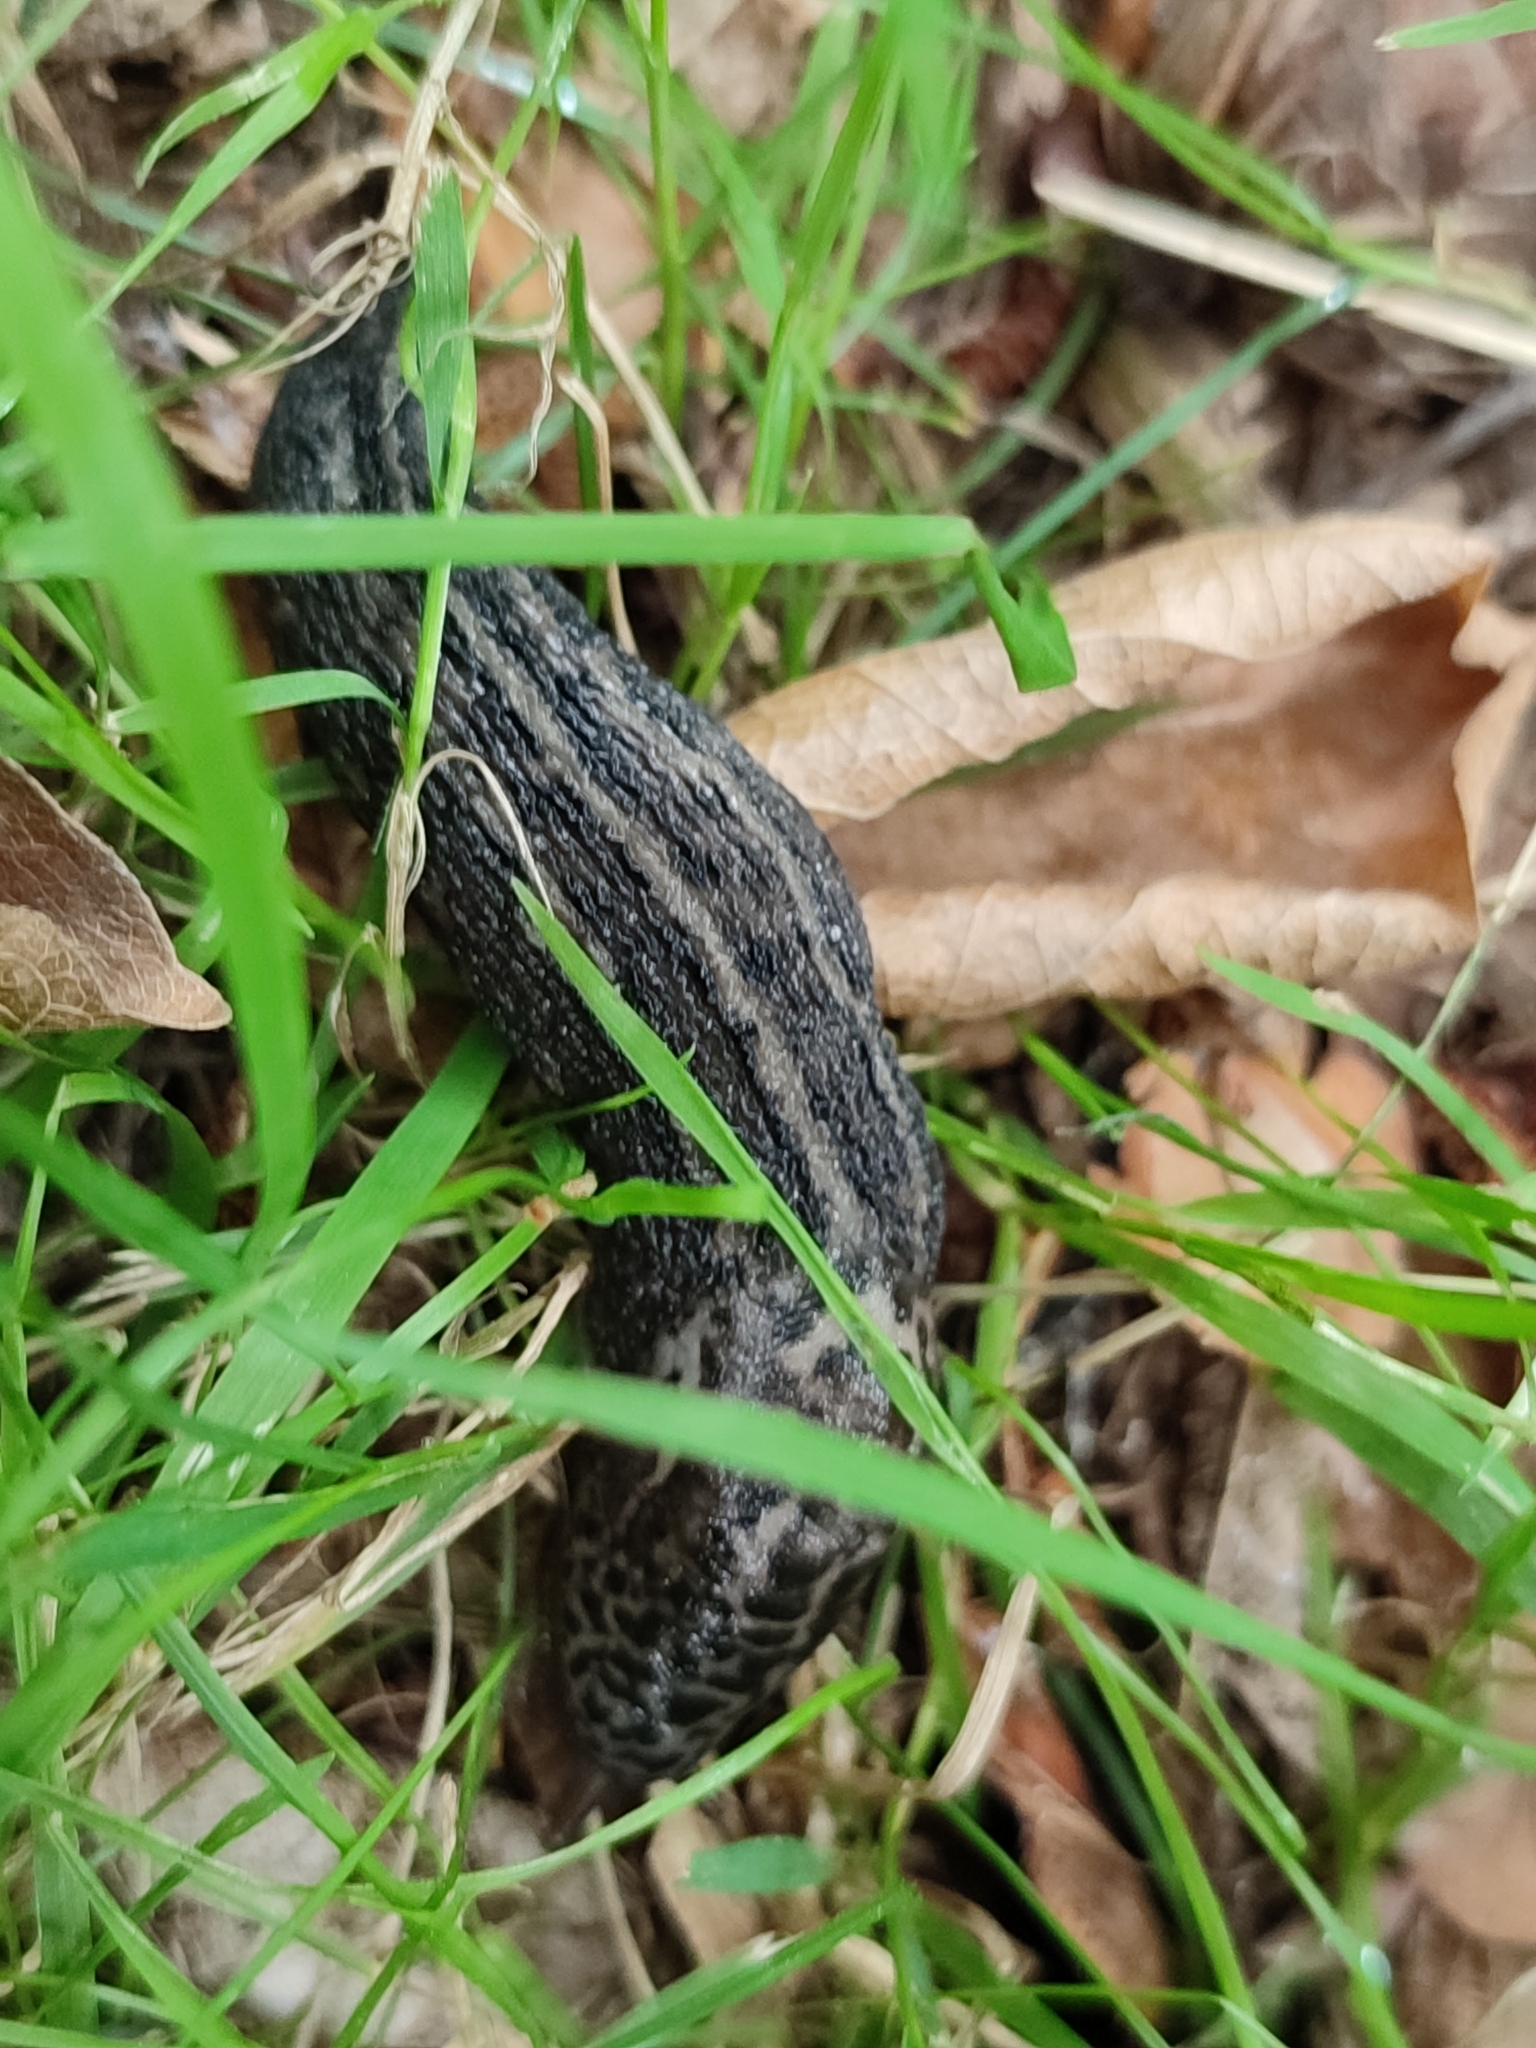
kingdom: Animalia
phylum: Mollusca
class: Gastropoda
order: Stylommatophora
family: Limacidae
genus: Limax
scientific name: Limax maximus
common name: Great grey slug
